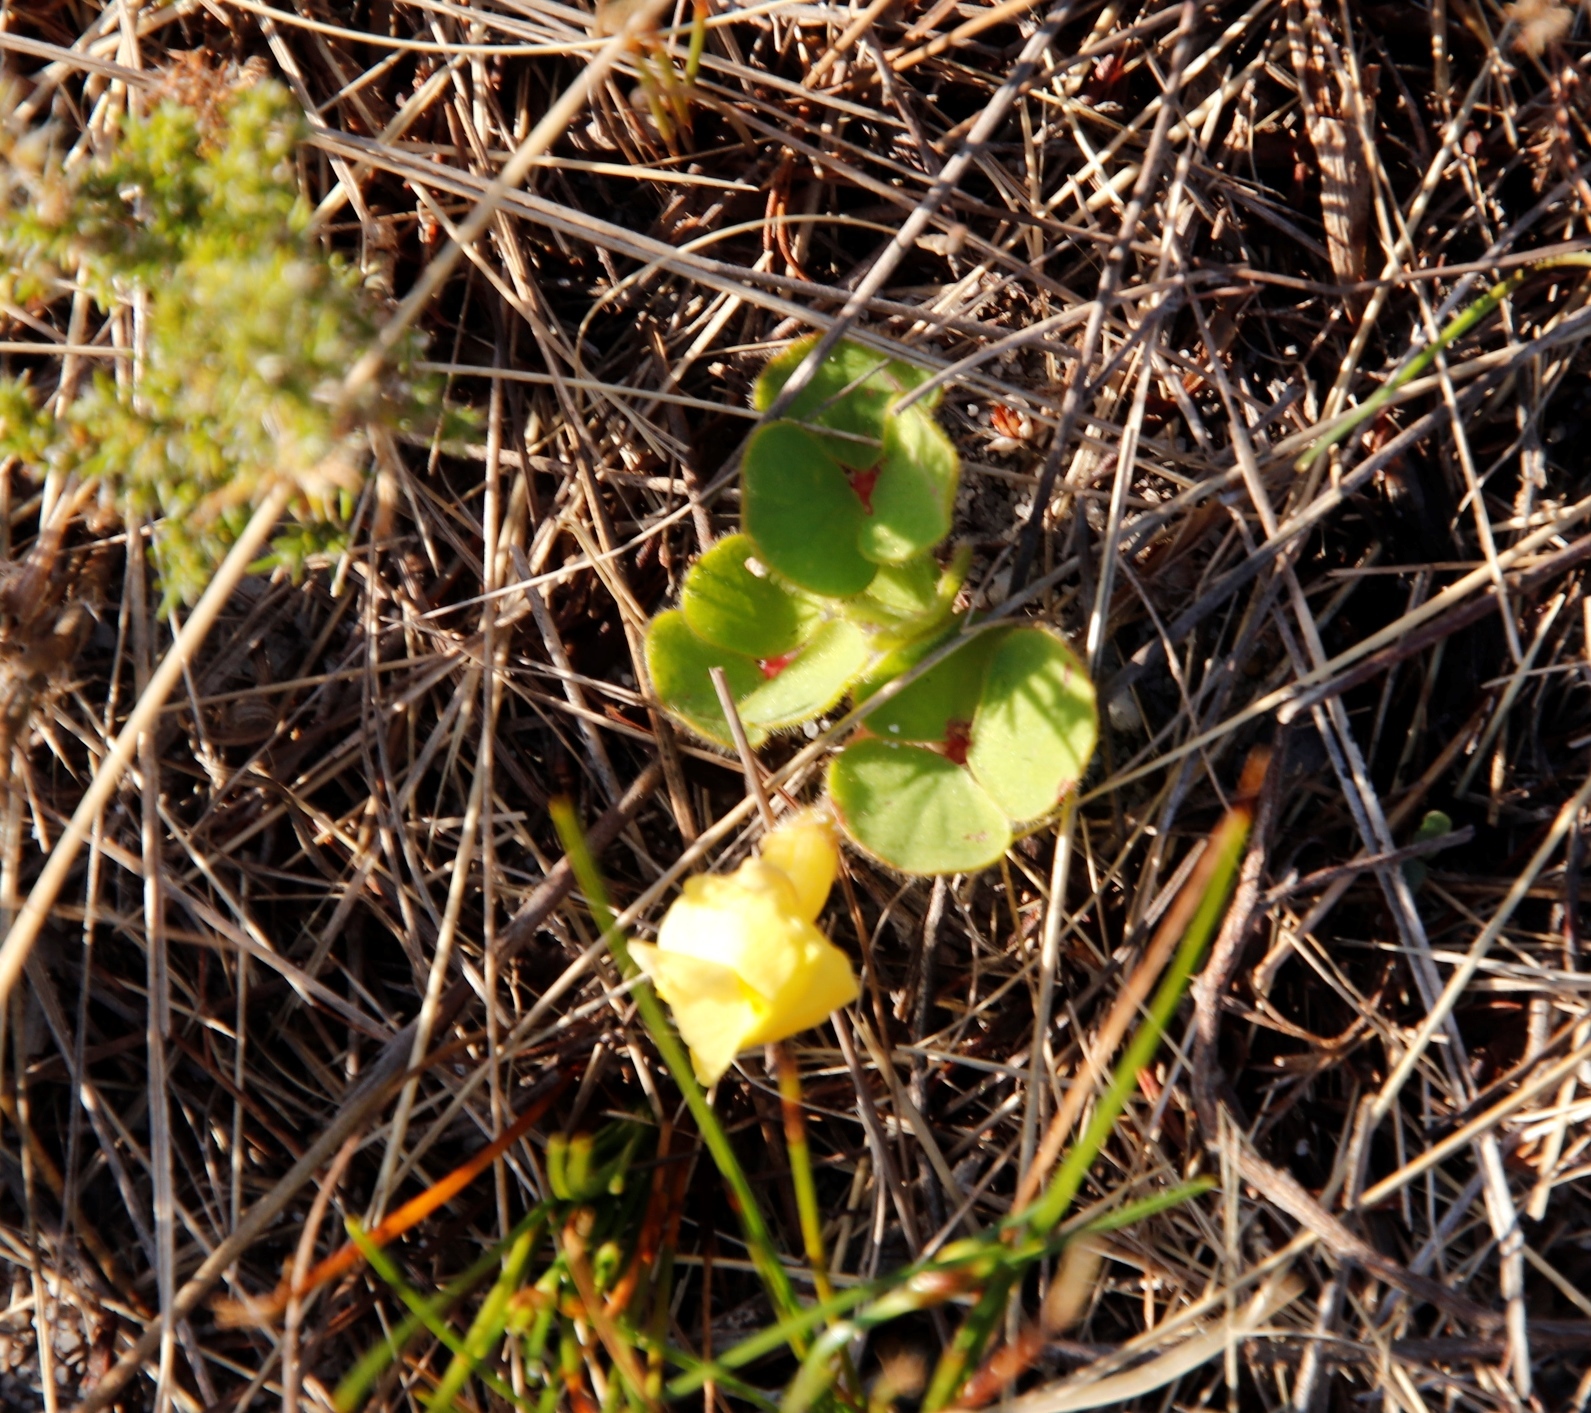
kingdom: Plantae
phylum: Tracheophyta
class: Magnoliopsida
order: Oxalidales
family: Oxalidaceae
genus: Oxalis
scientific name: Oxalis luteola
